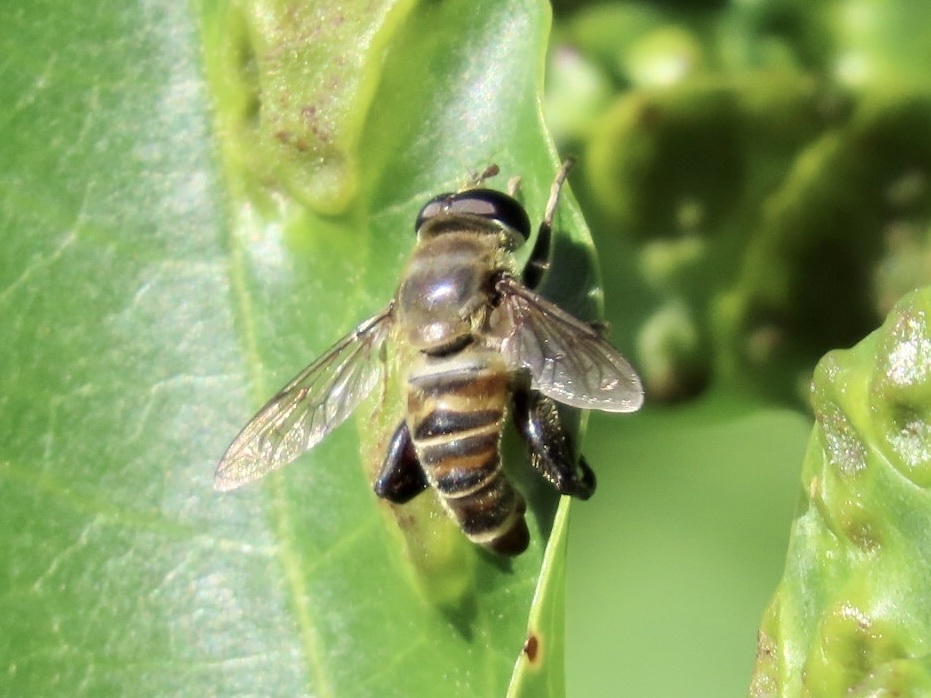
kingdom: Animalia
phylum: Arthropoda
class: Insecta
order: Diptera
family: Syrphidae
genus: Tigridemyia
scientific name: Tigridemyia curvigaster
